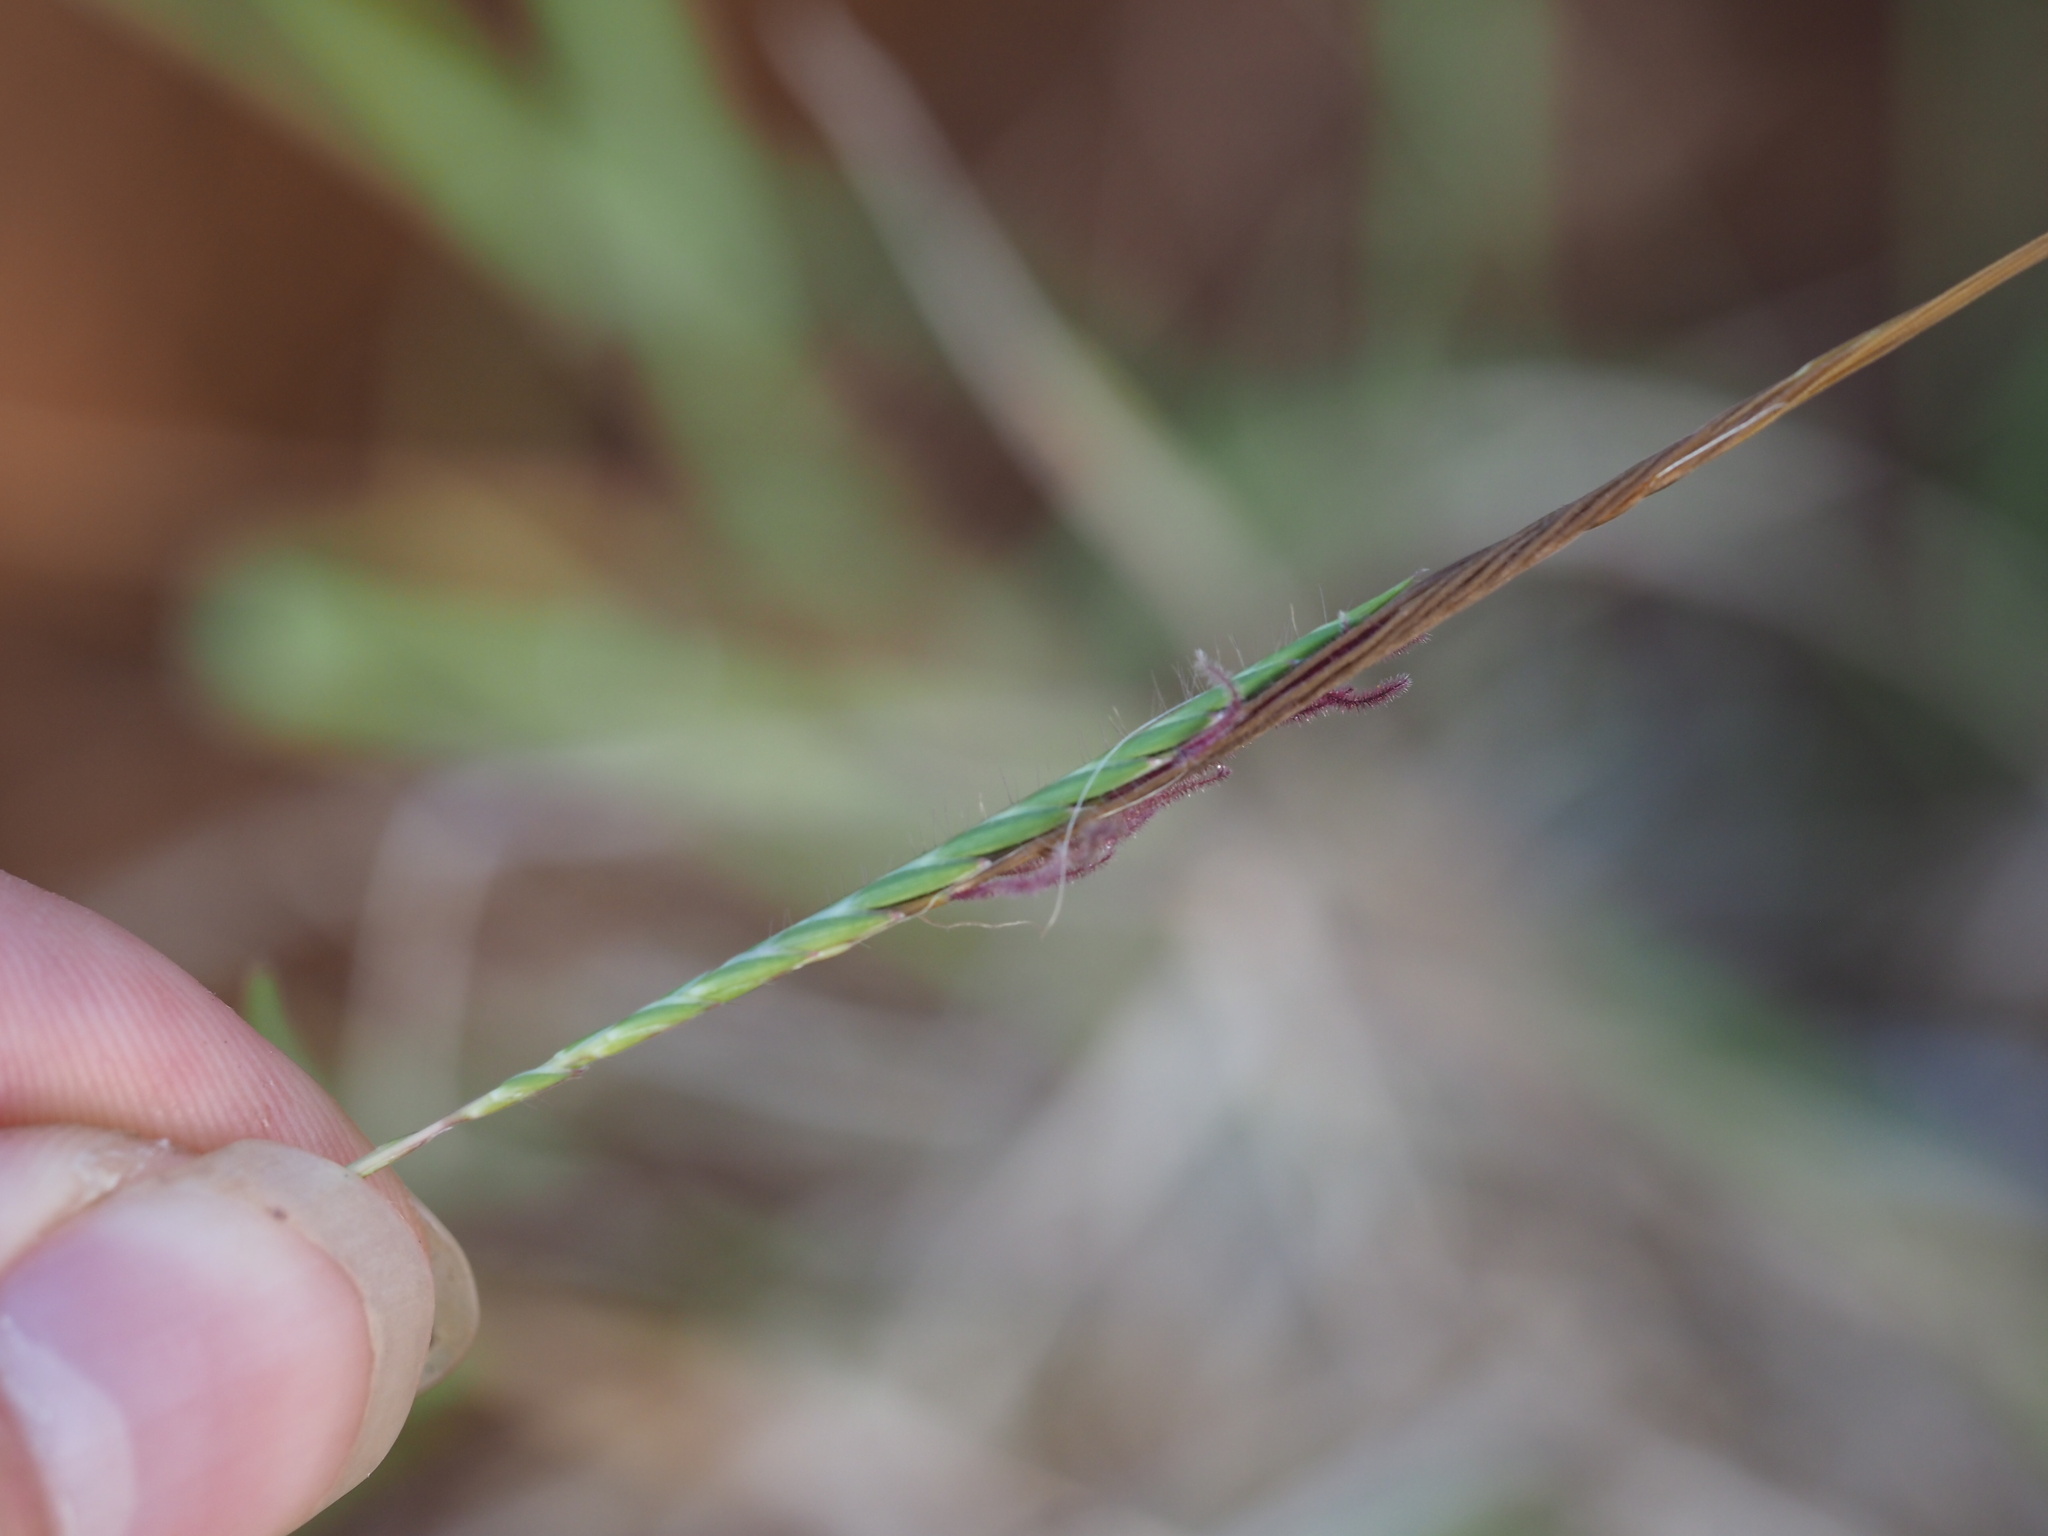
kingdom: Plantae
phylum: Tracheophyta
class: Liliopsida
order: Poales
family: Poaceae
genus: Heteropogon
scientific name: Heteropogon contortus
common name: Tanglehead
